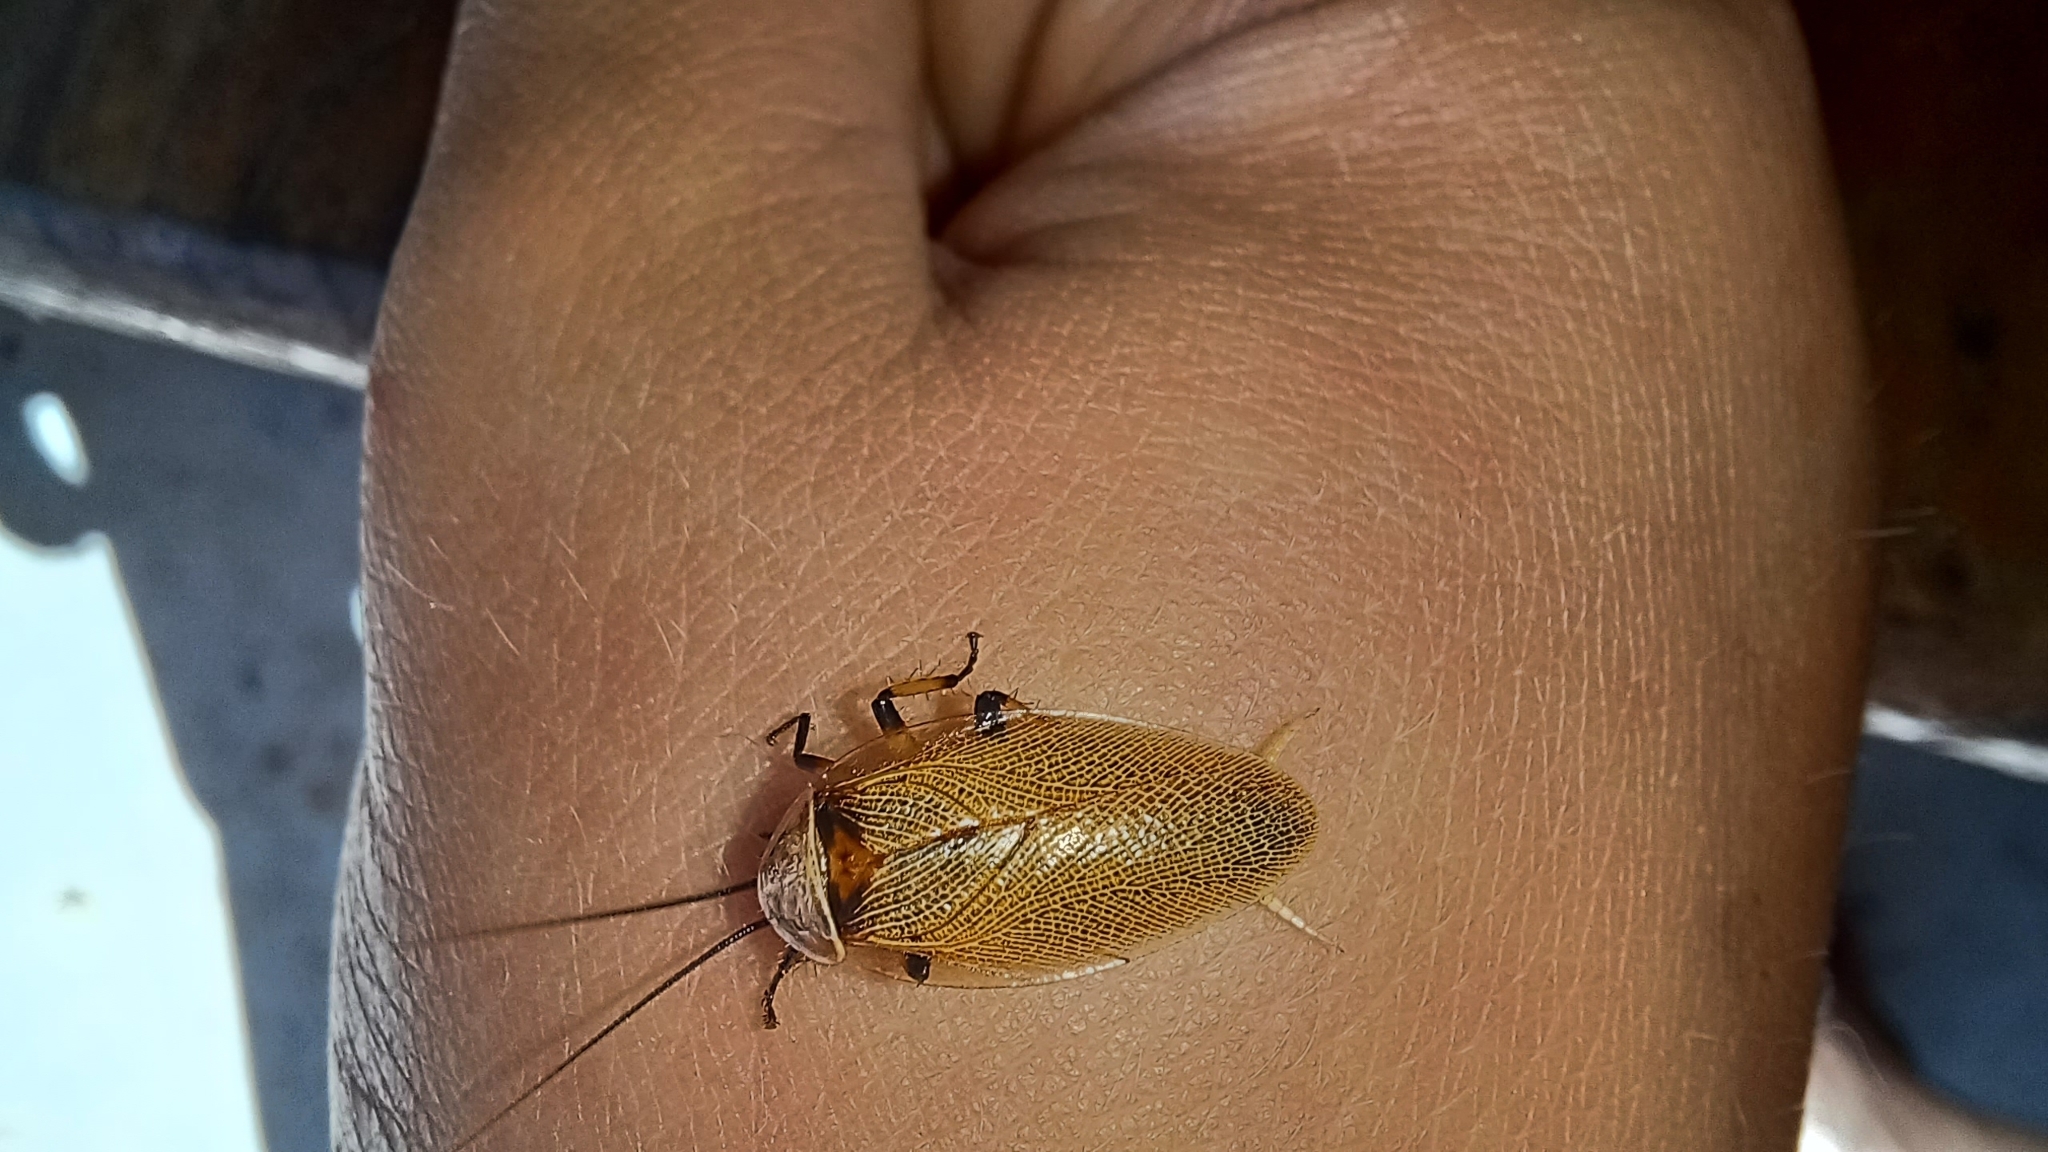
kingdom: Animalia
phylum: Arthropoda
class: Insecta
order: Blattodea
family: Ectobiidae
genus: Ellipsidion
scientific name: Ellipsidion humerale
